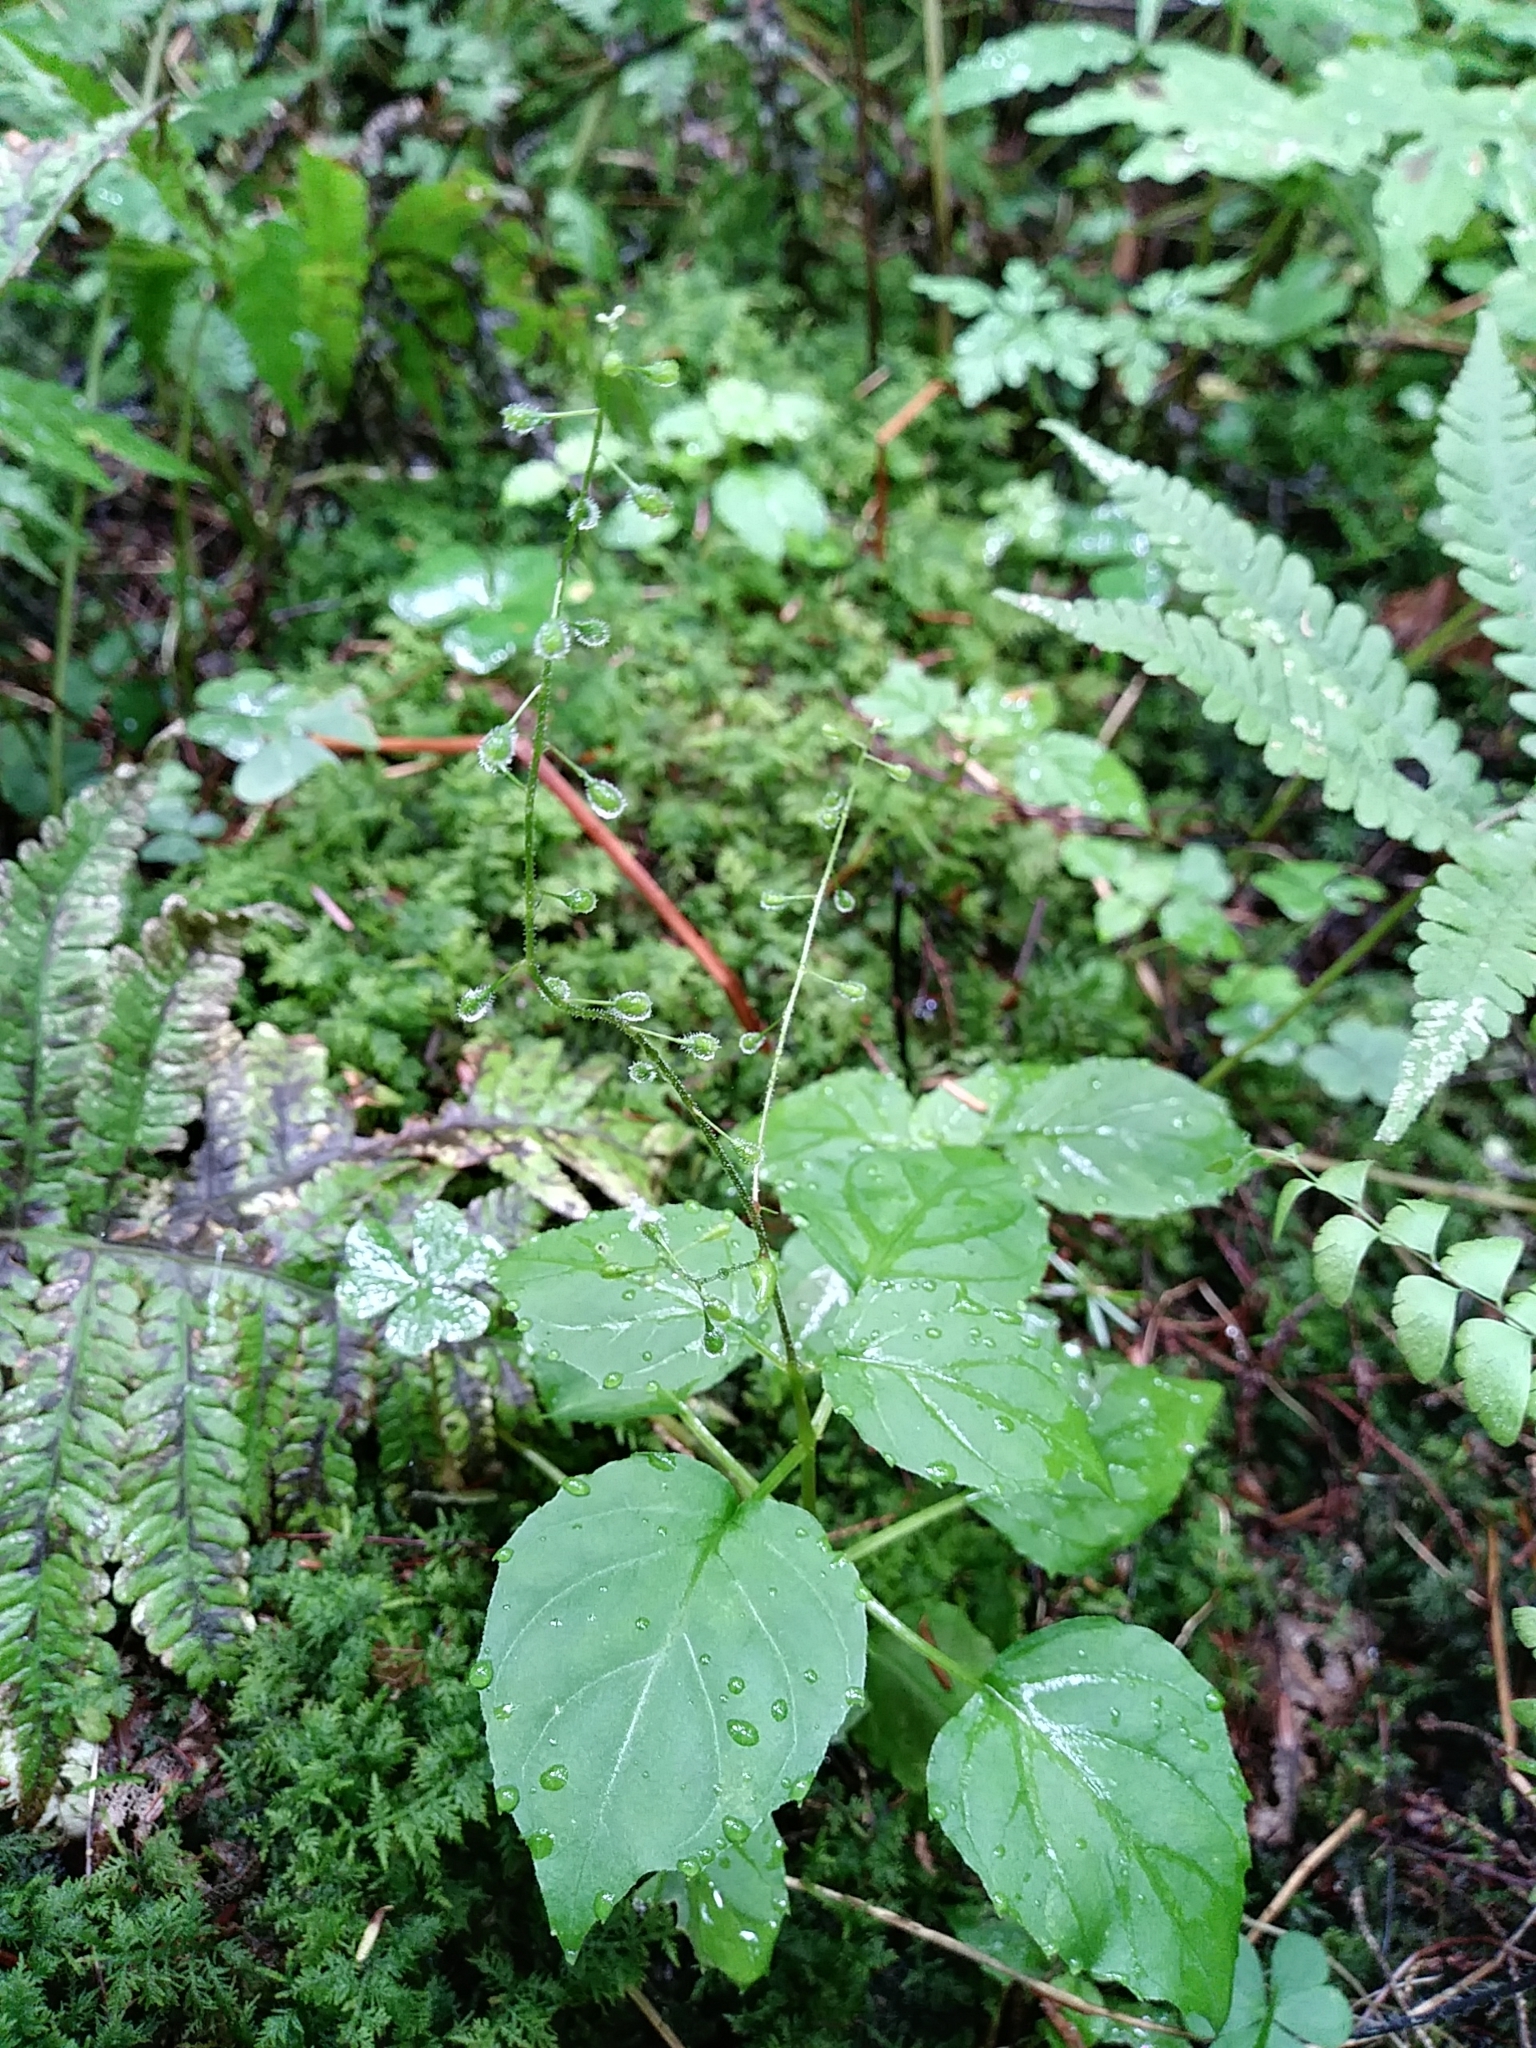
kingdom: Plantae
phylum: Tracheophyta
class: Magnoliopsida
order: Myrtales
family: Onagraceae
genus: Circaea
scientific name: Circaea canadensis
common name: Broad-leaved enchanter's nightshade
